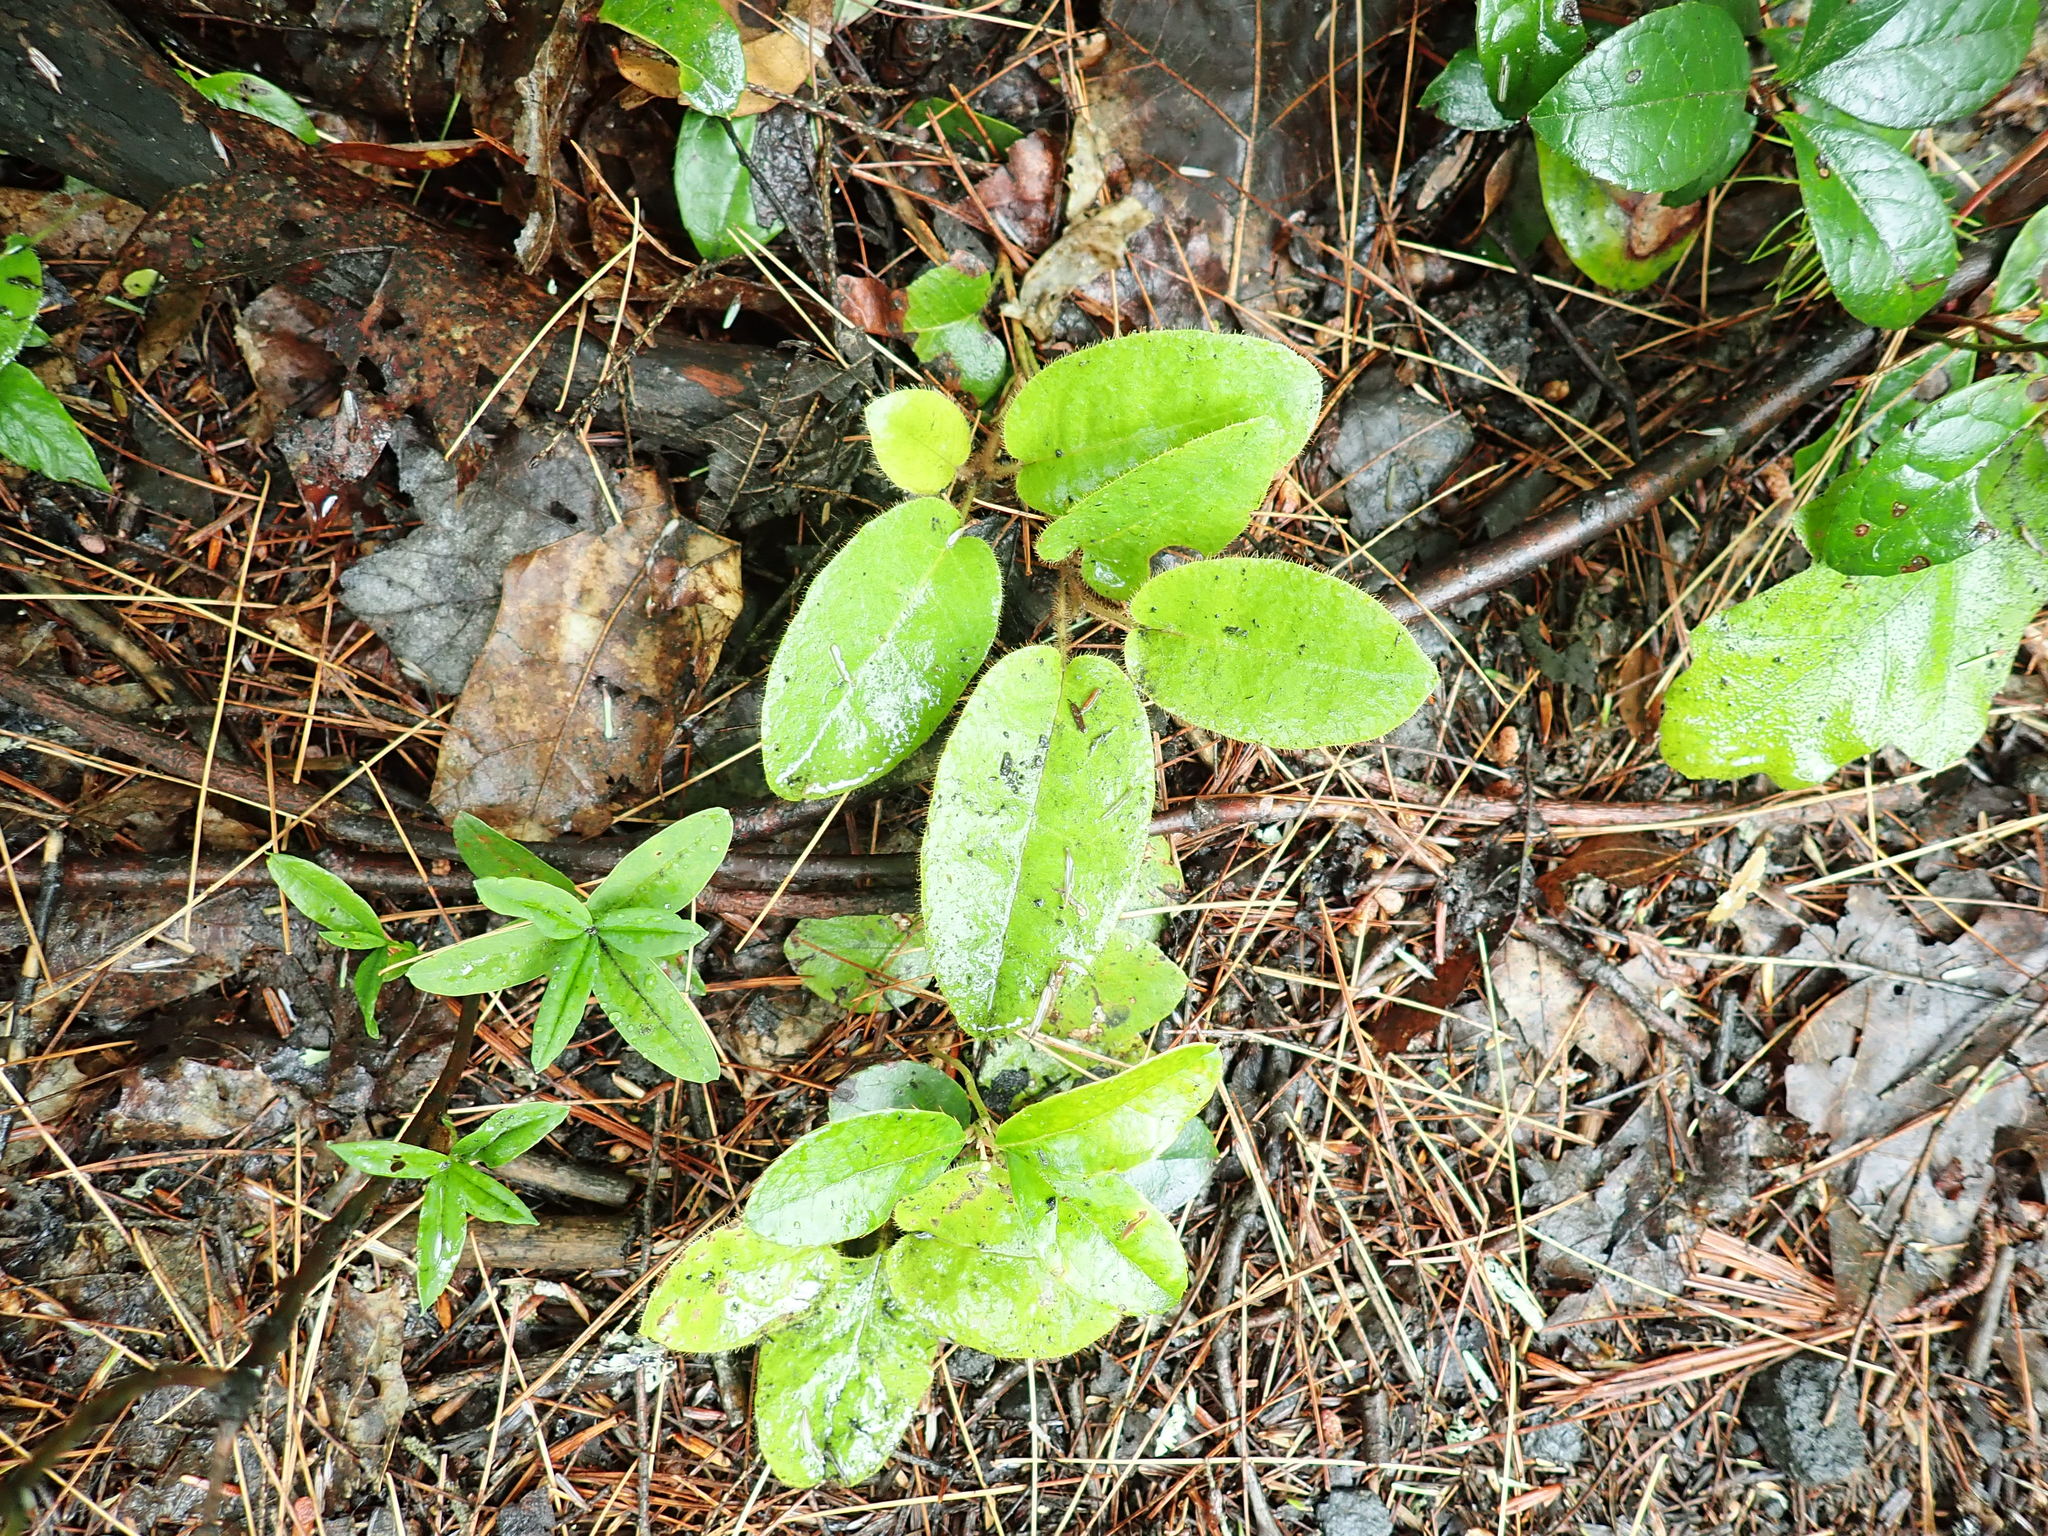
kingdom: Plantae
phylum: Tracheophyta
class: Magnoliopsida
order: Ericales
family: Ericaceae
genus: Epigaea
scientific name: Epigaea repens
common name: Gravelroot
